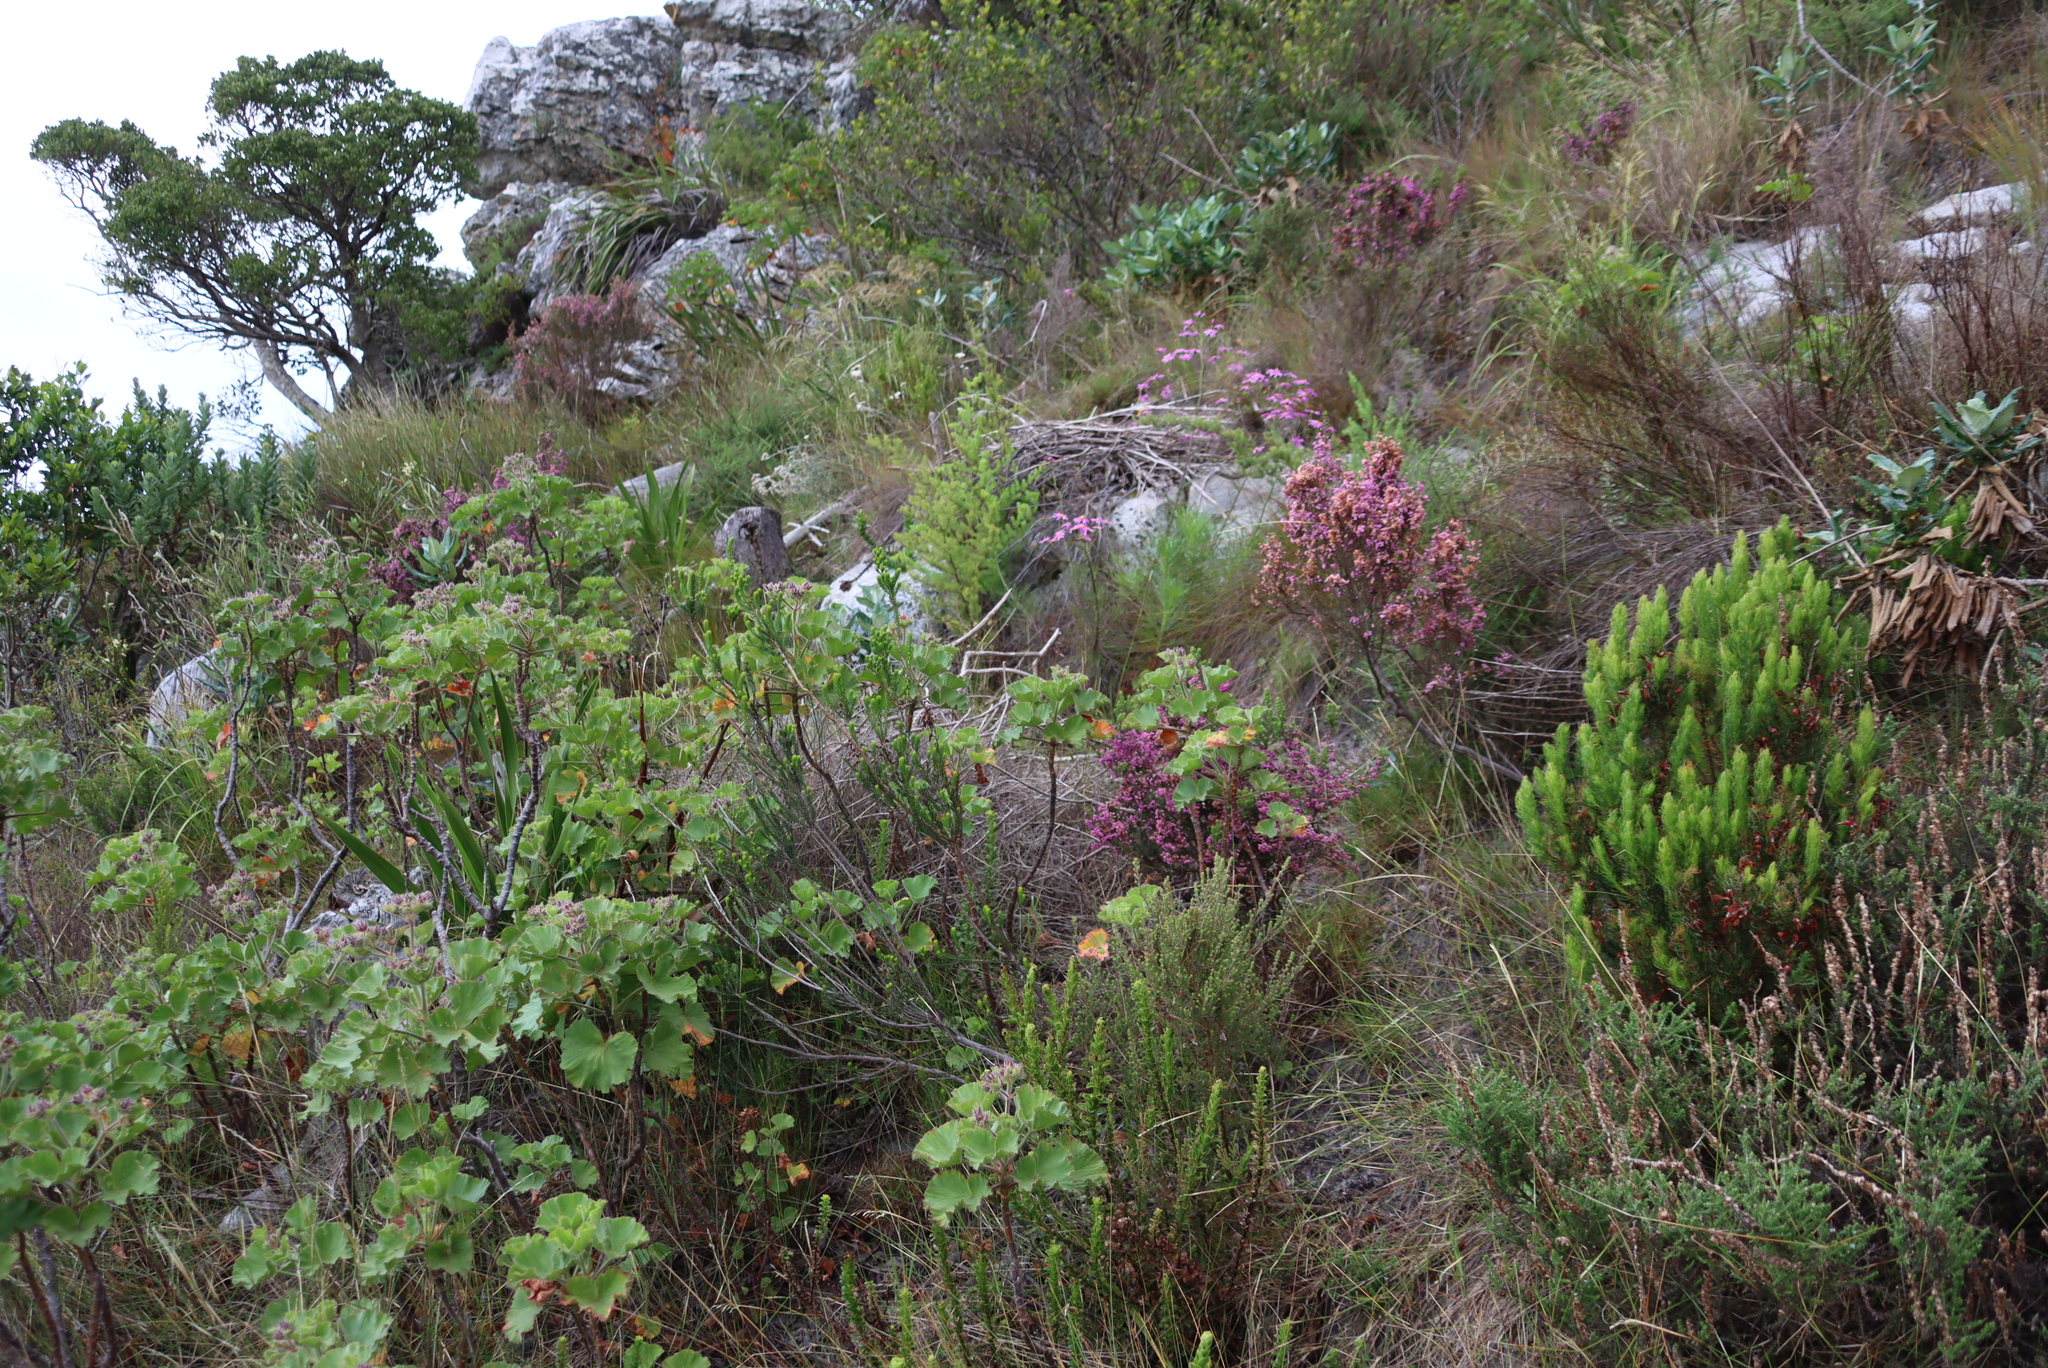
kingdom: Plantae
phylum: Tracheophyta
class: Magnoliopsida
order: Ericales
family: Ericaceae
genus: Erica
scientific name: Erica hirtiflora
